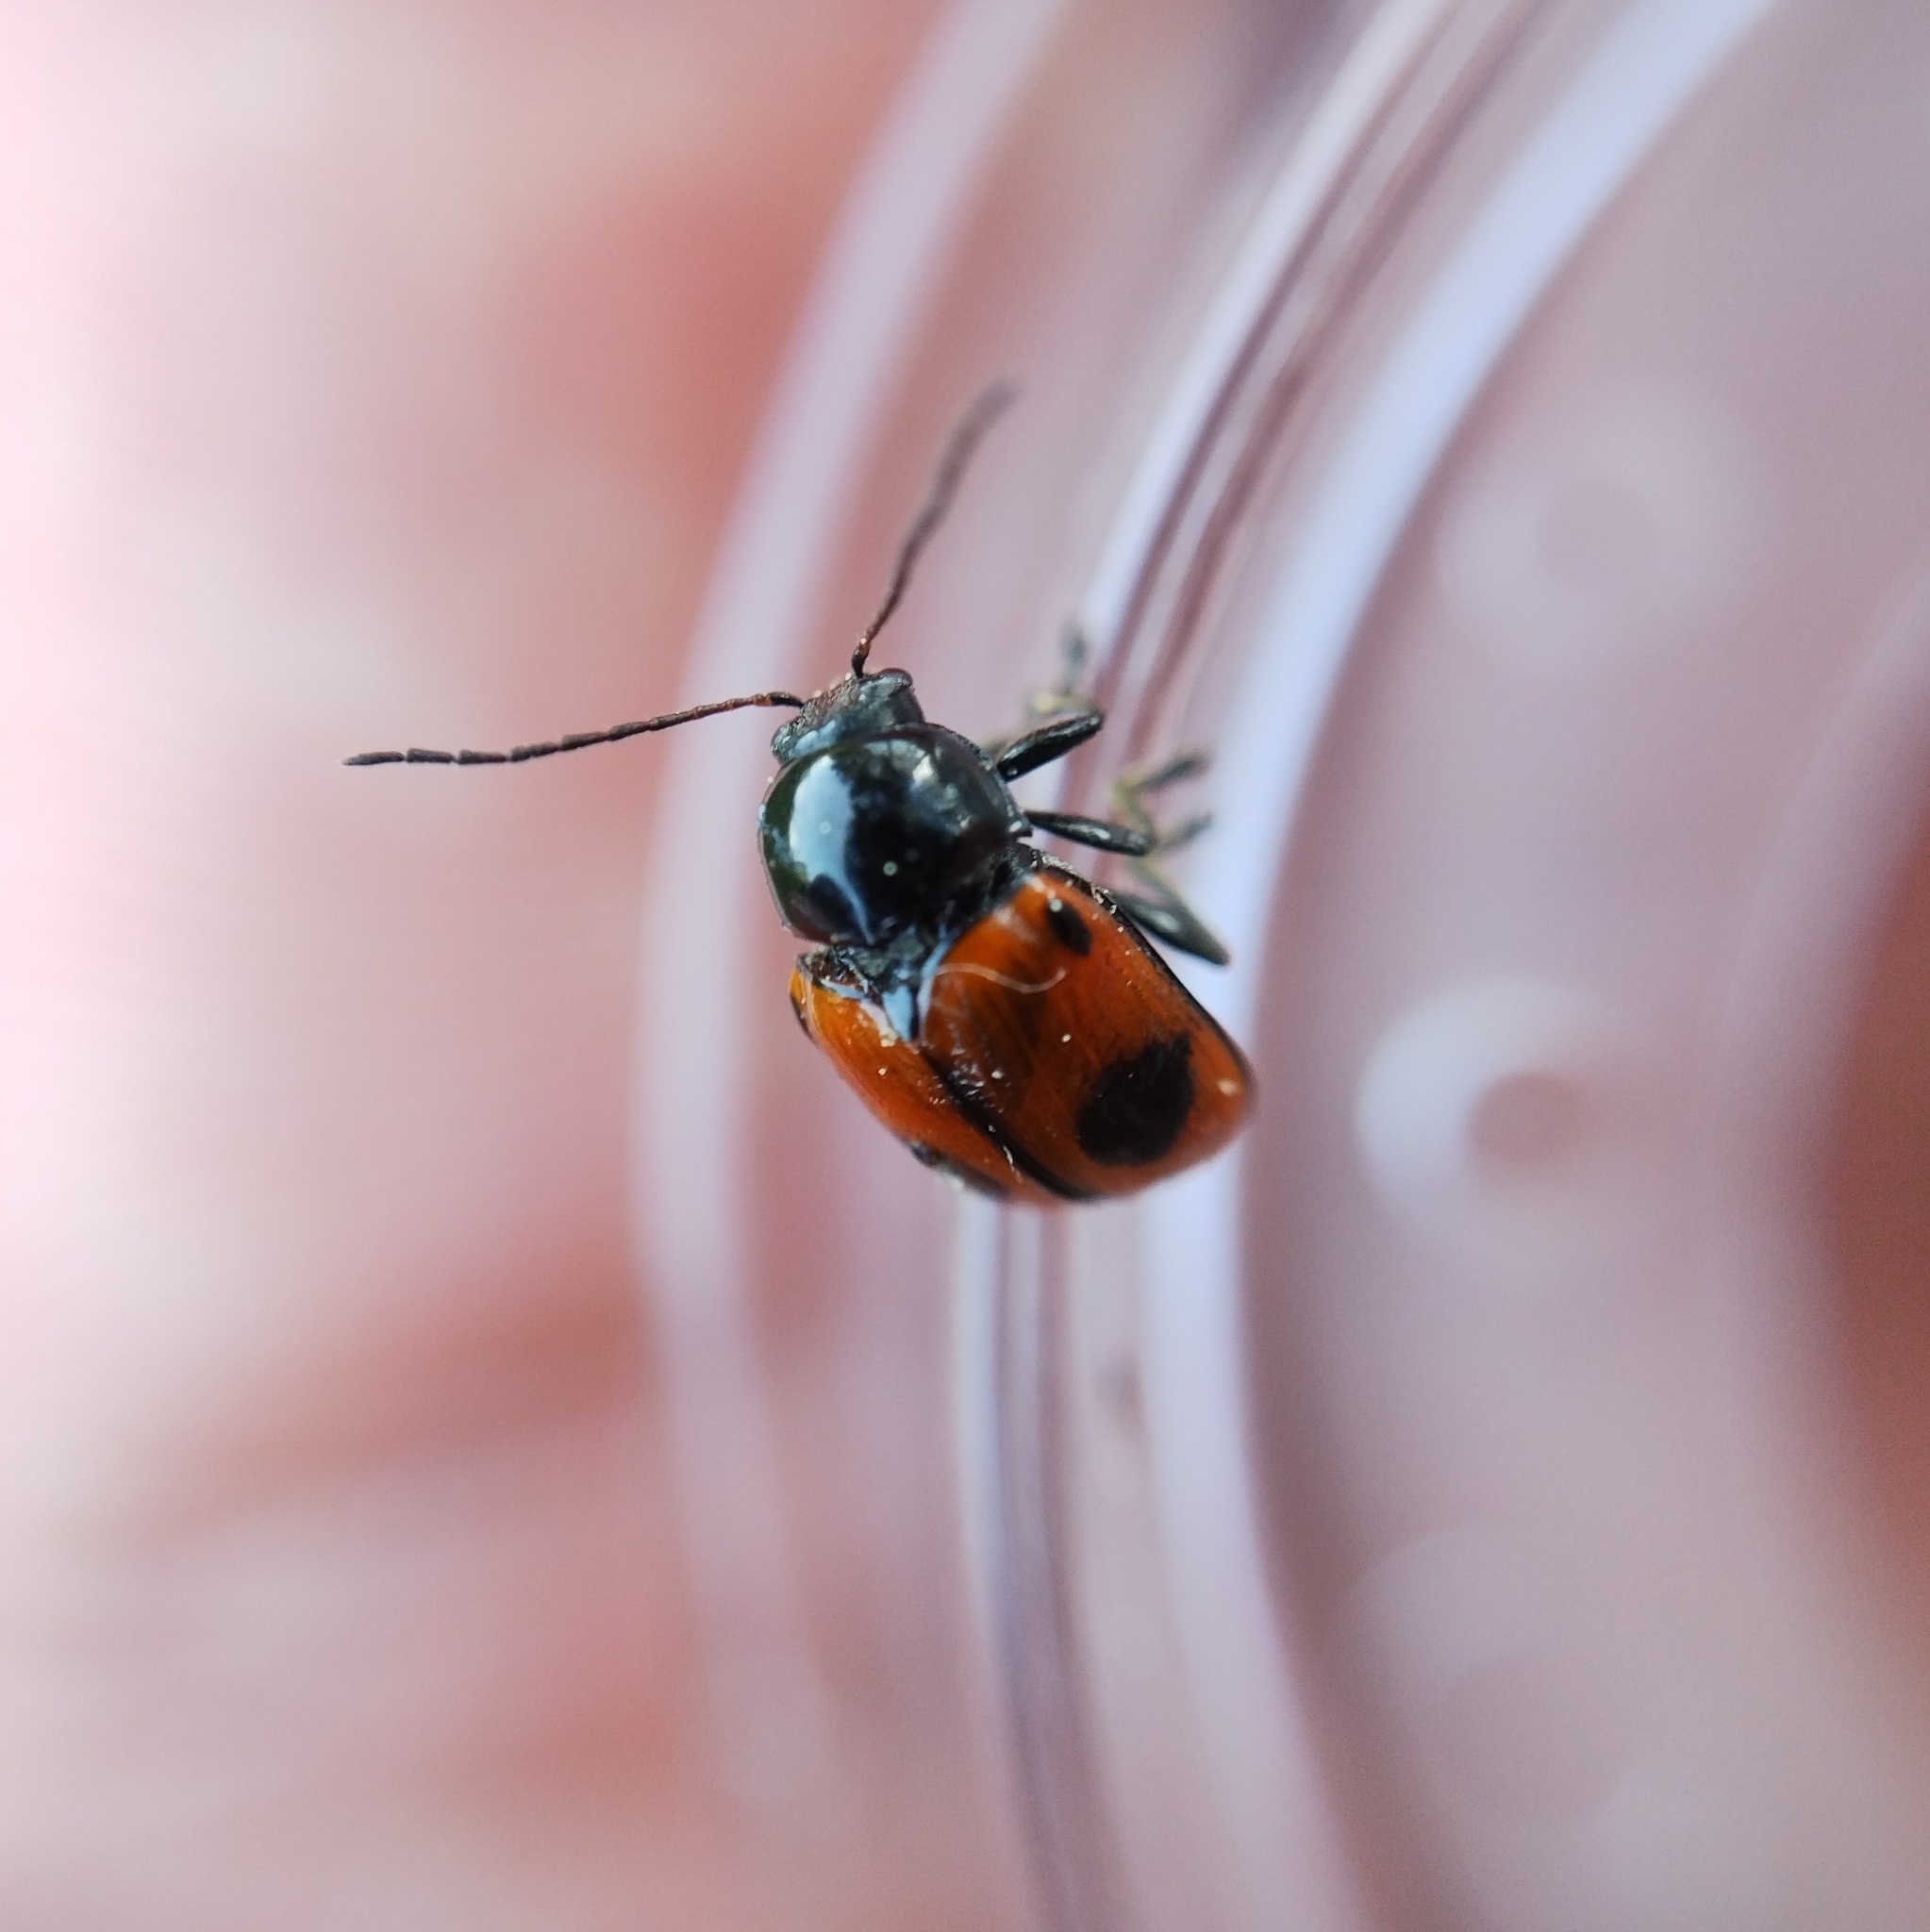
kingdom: Animalia
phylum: Arthropoda
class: Insecta
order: Coleoptera
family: Chrysomelidae
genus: Chiridopsis
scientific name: Chiridopsis bipunctata
